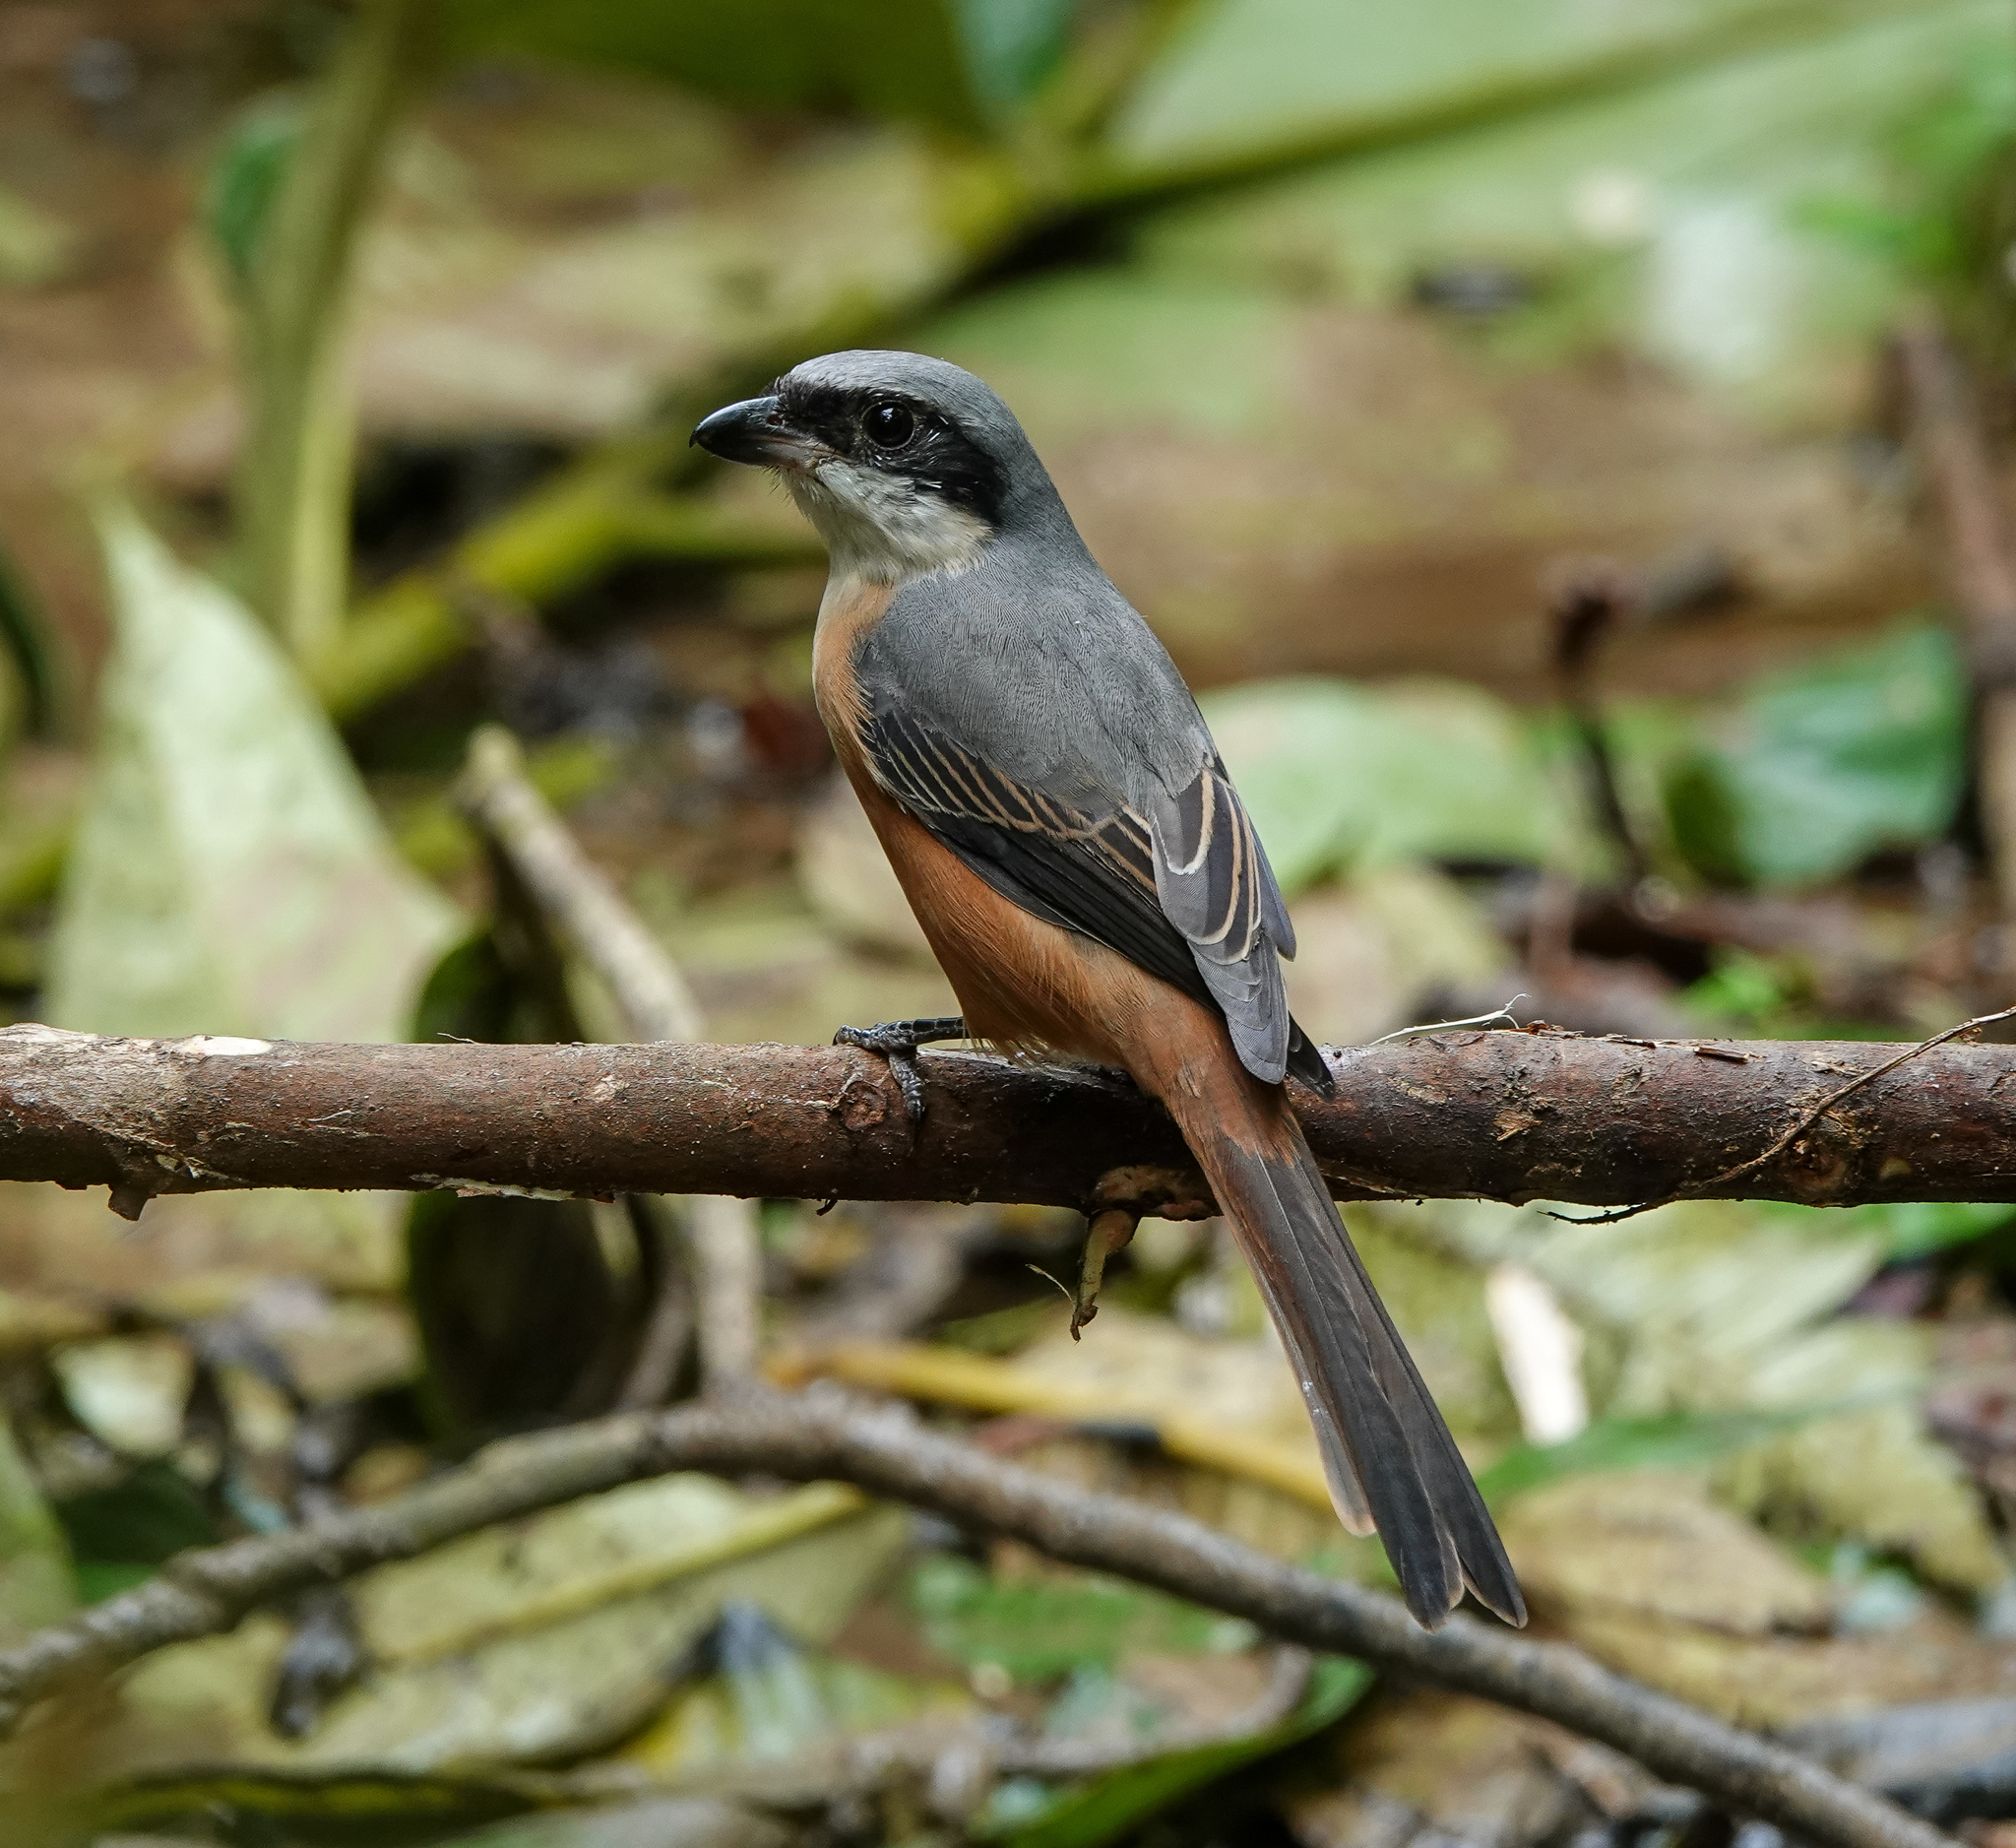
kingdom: Animalia
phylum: Chordata
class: Aves
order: Passeriformes
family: Laniidae
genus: Lanius
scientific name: Lanius tephronotus
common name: Grey-backed shrike
